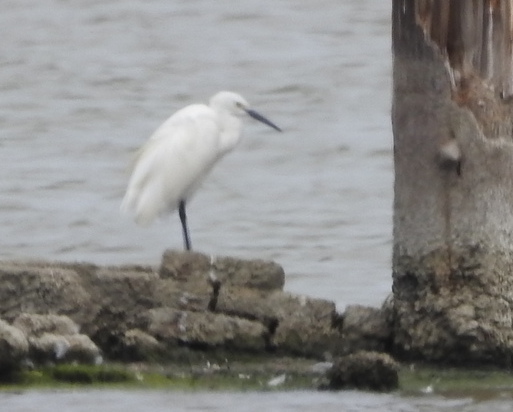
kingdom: Animalia
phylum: Chordata
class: Aves
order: Pelecaniformes
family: Ardeidae
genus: Egretta
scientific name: Egretta garzetta
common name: Little egret
